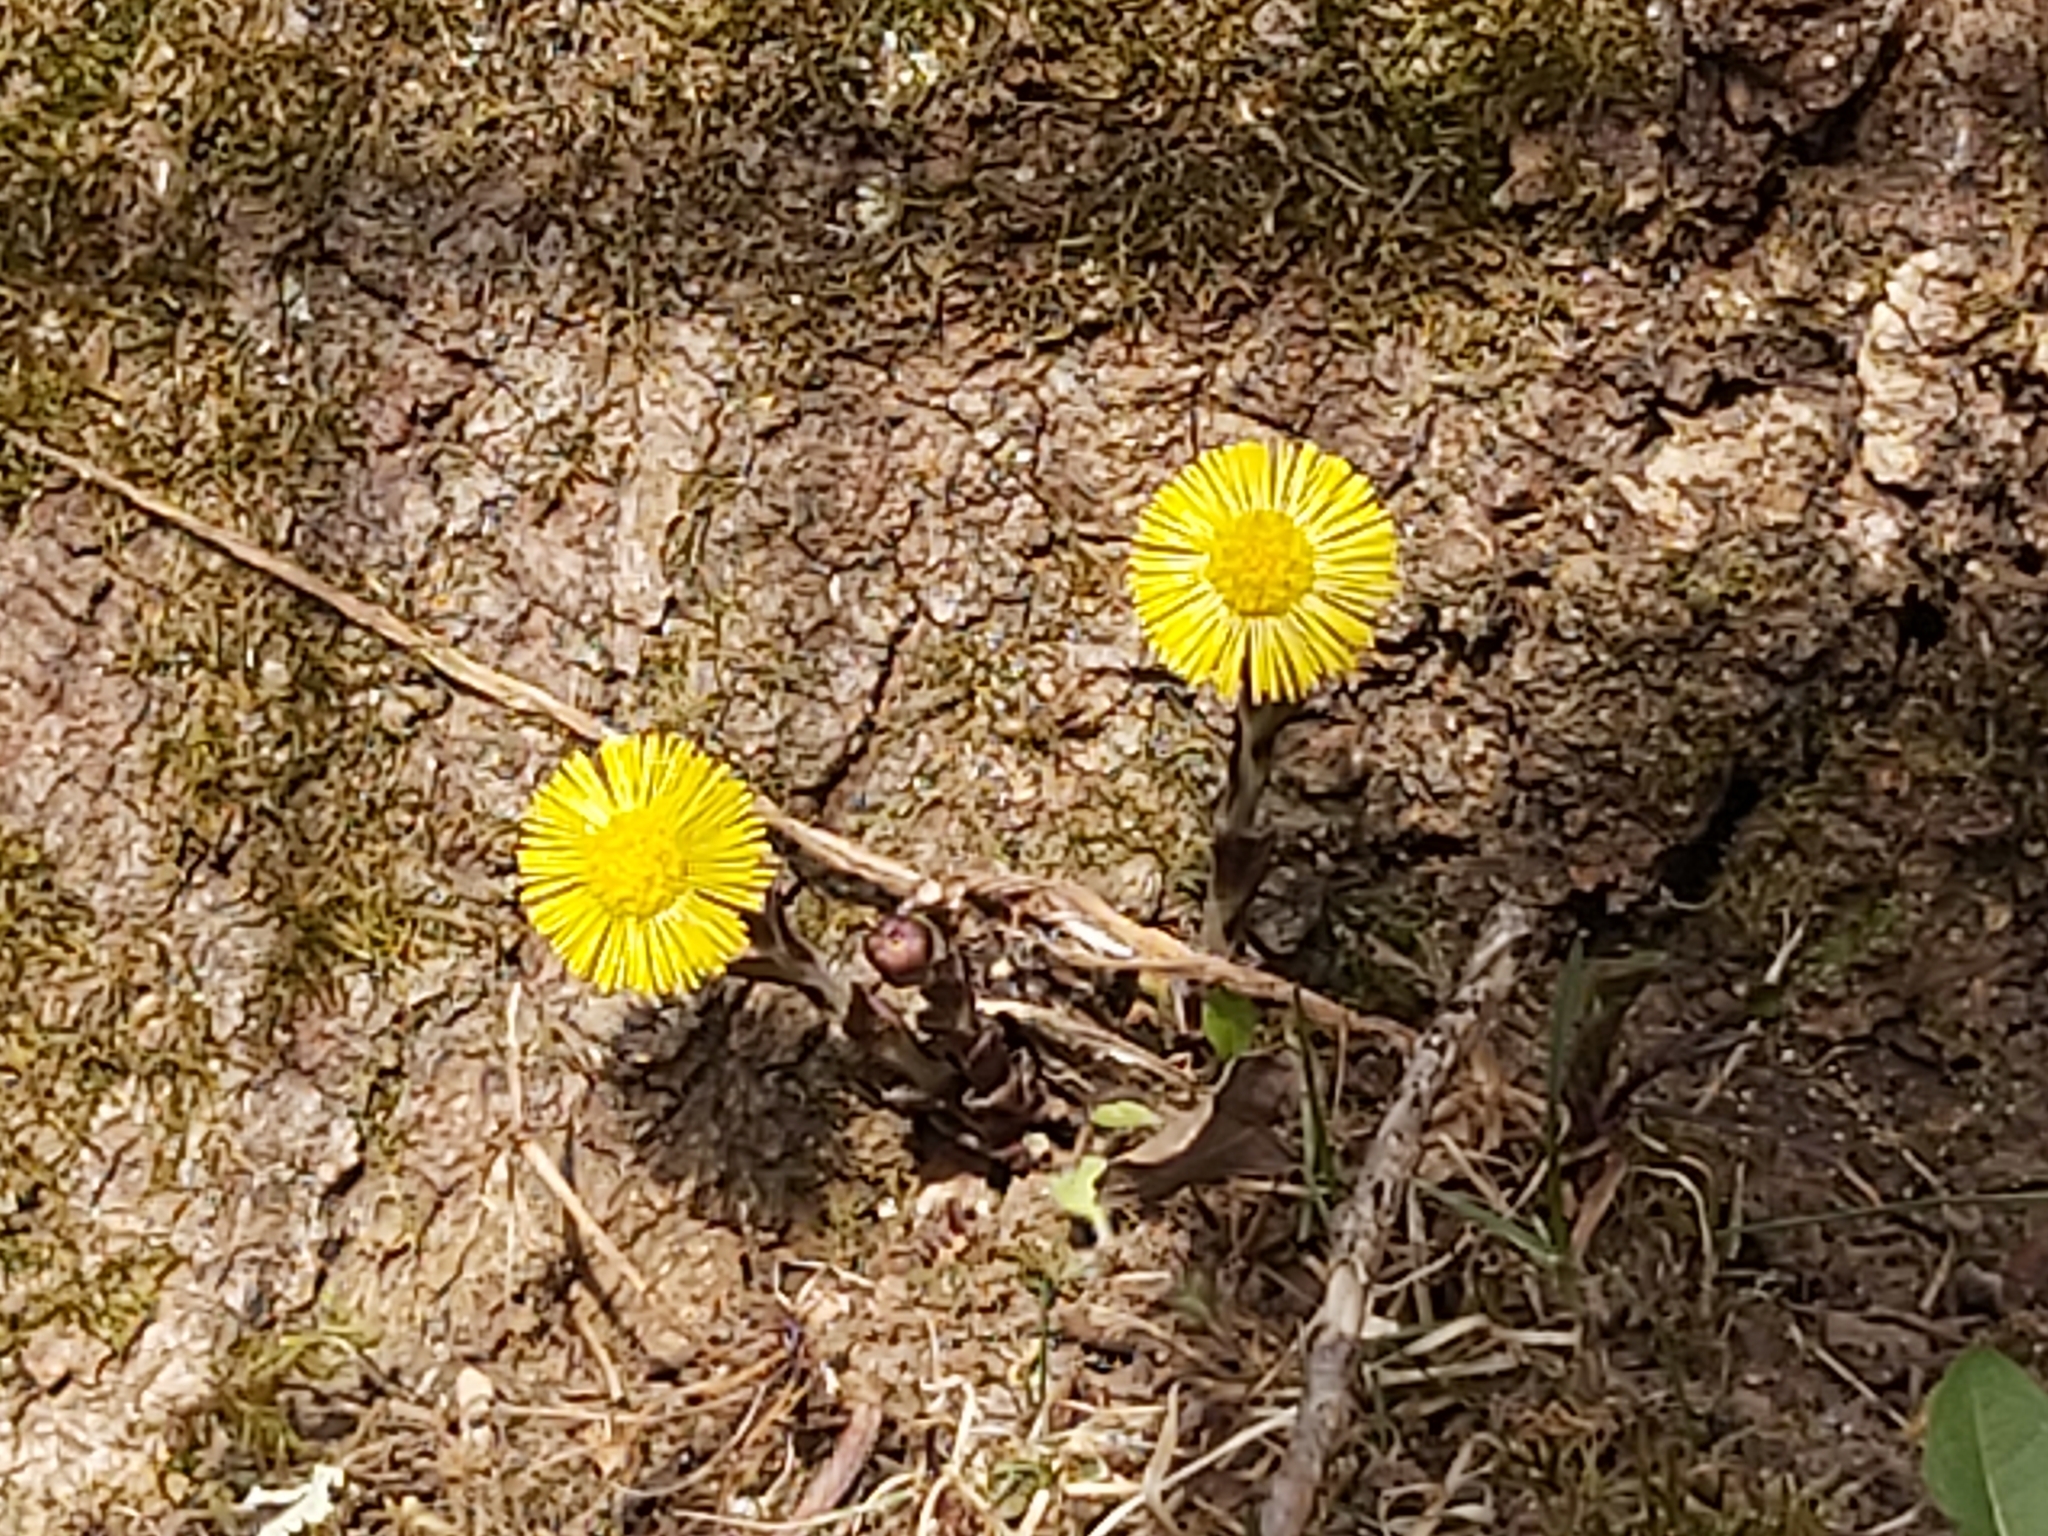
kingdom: Plantae
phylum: Tracheophyta
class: Magnoliopsida
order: Asterales
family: Asteraceae
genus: Tussilago
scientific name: Tussilago farfara
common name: Coltsfoot
